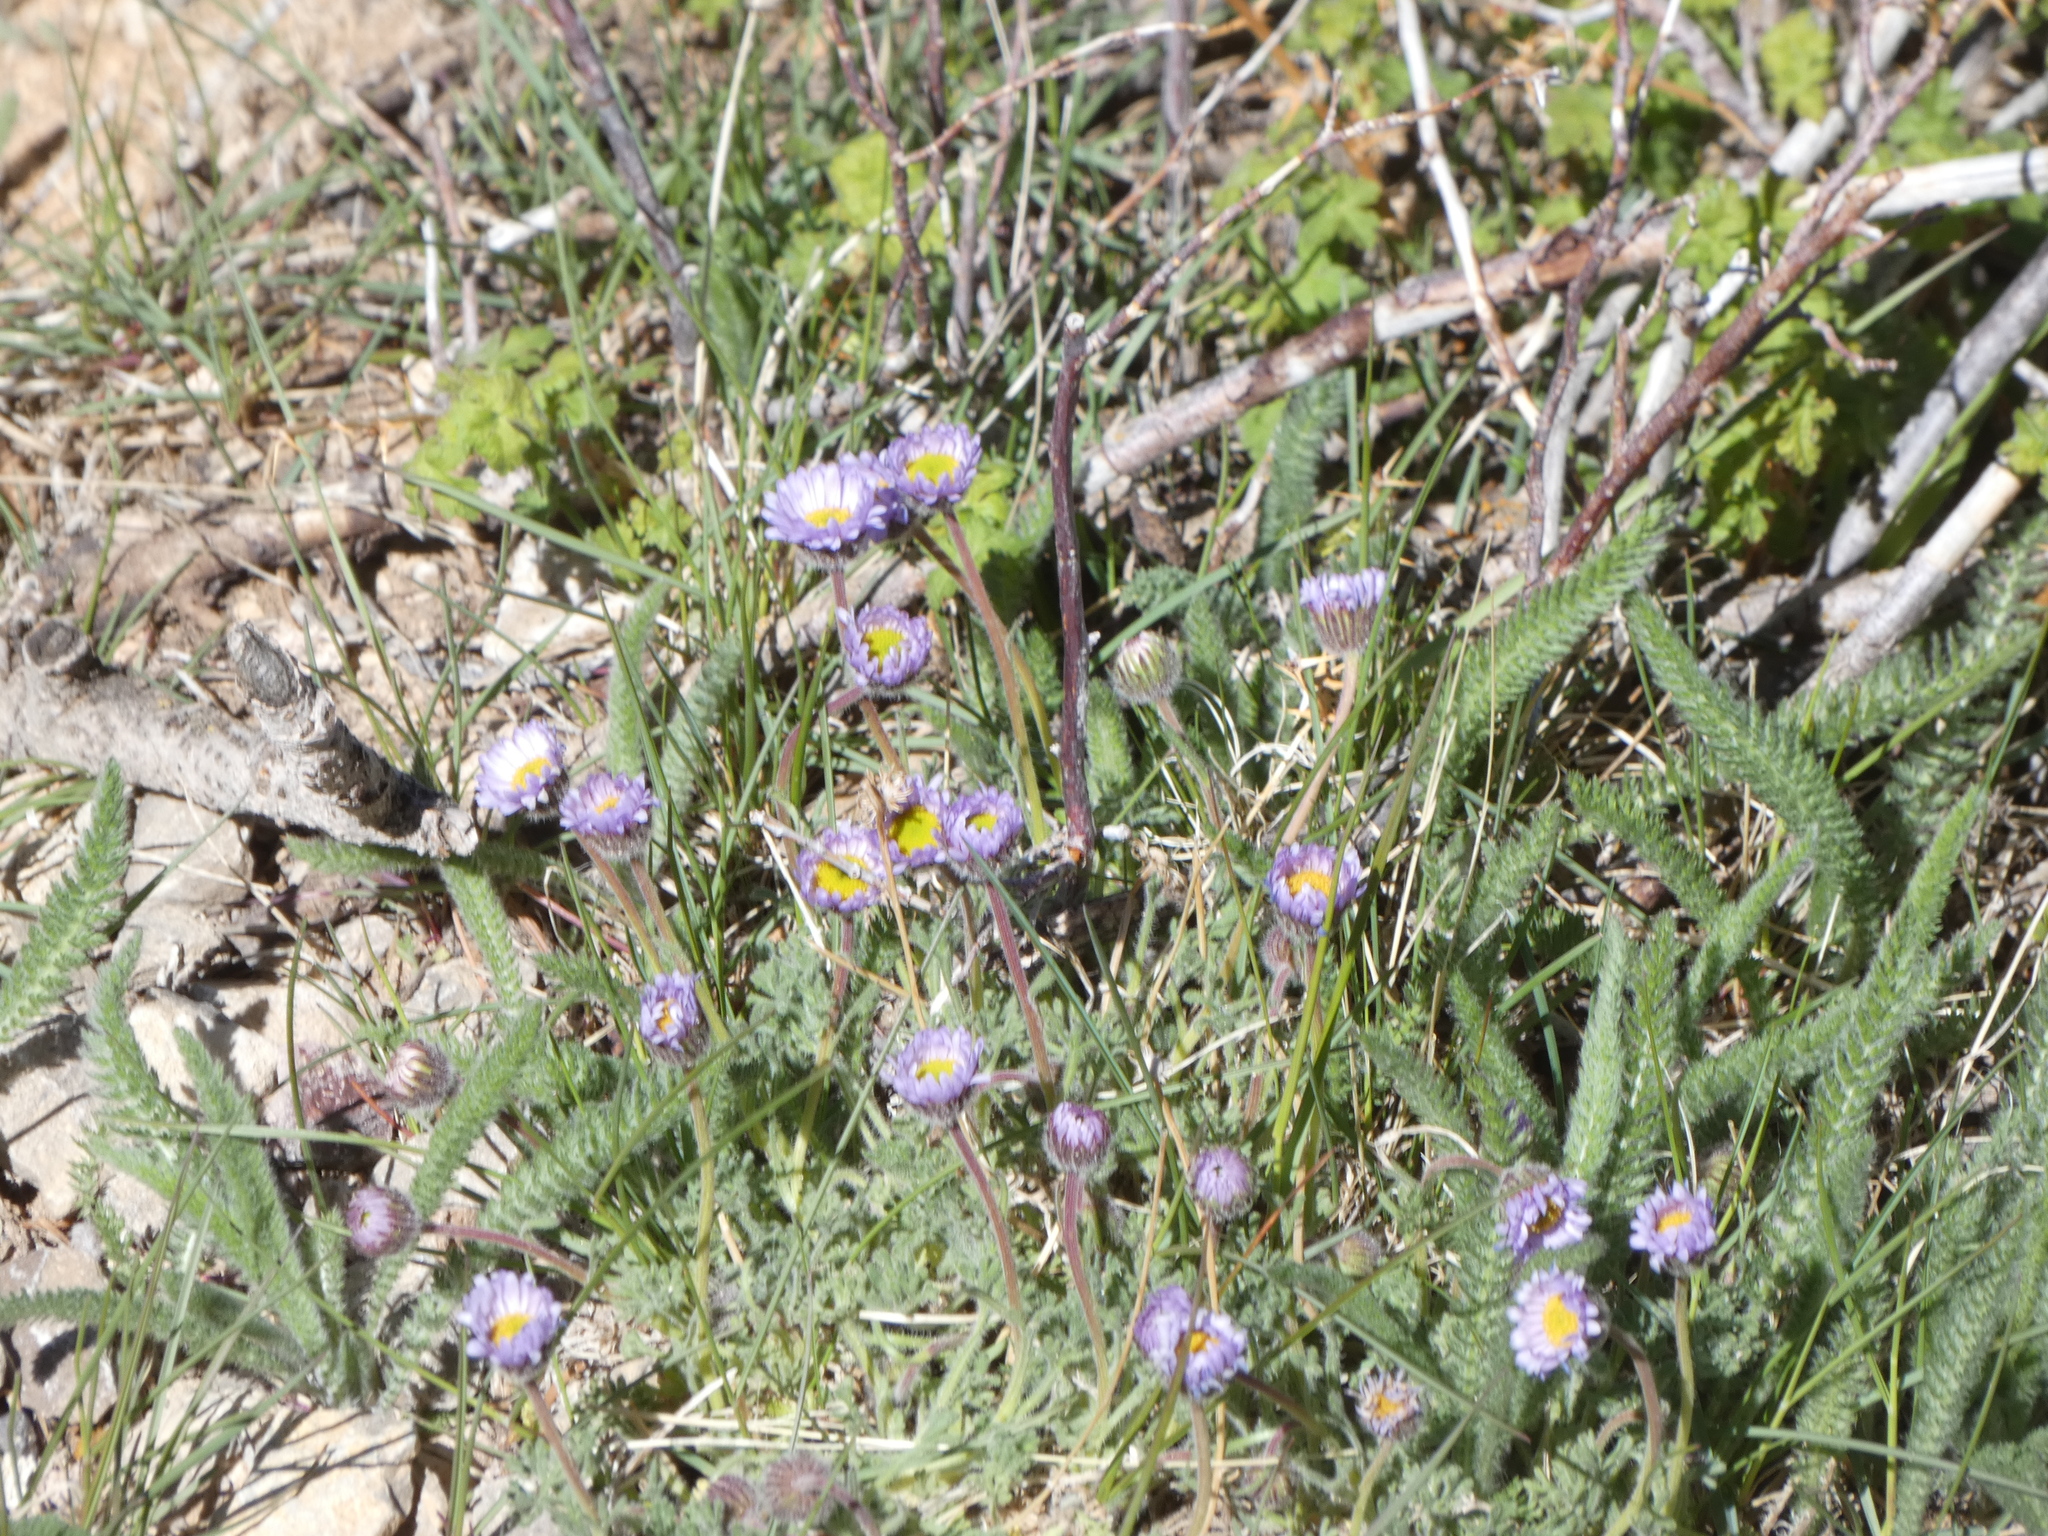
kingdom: Plantae
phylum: Tracheophyta
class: Magnoliopsida
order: Asterales
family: Asteraceae
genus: Erigeron
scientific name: Erigeron compositus
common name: Dwarf mountain fleabane
